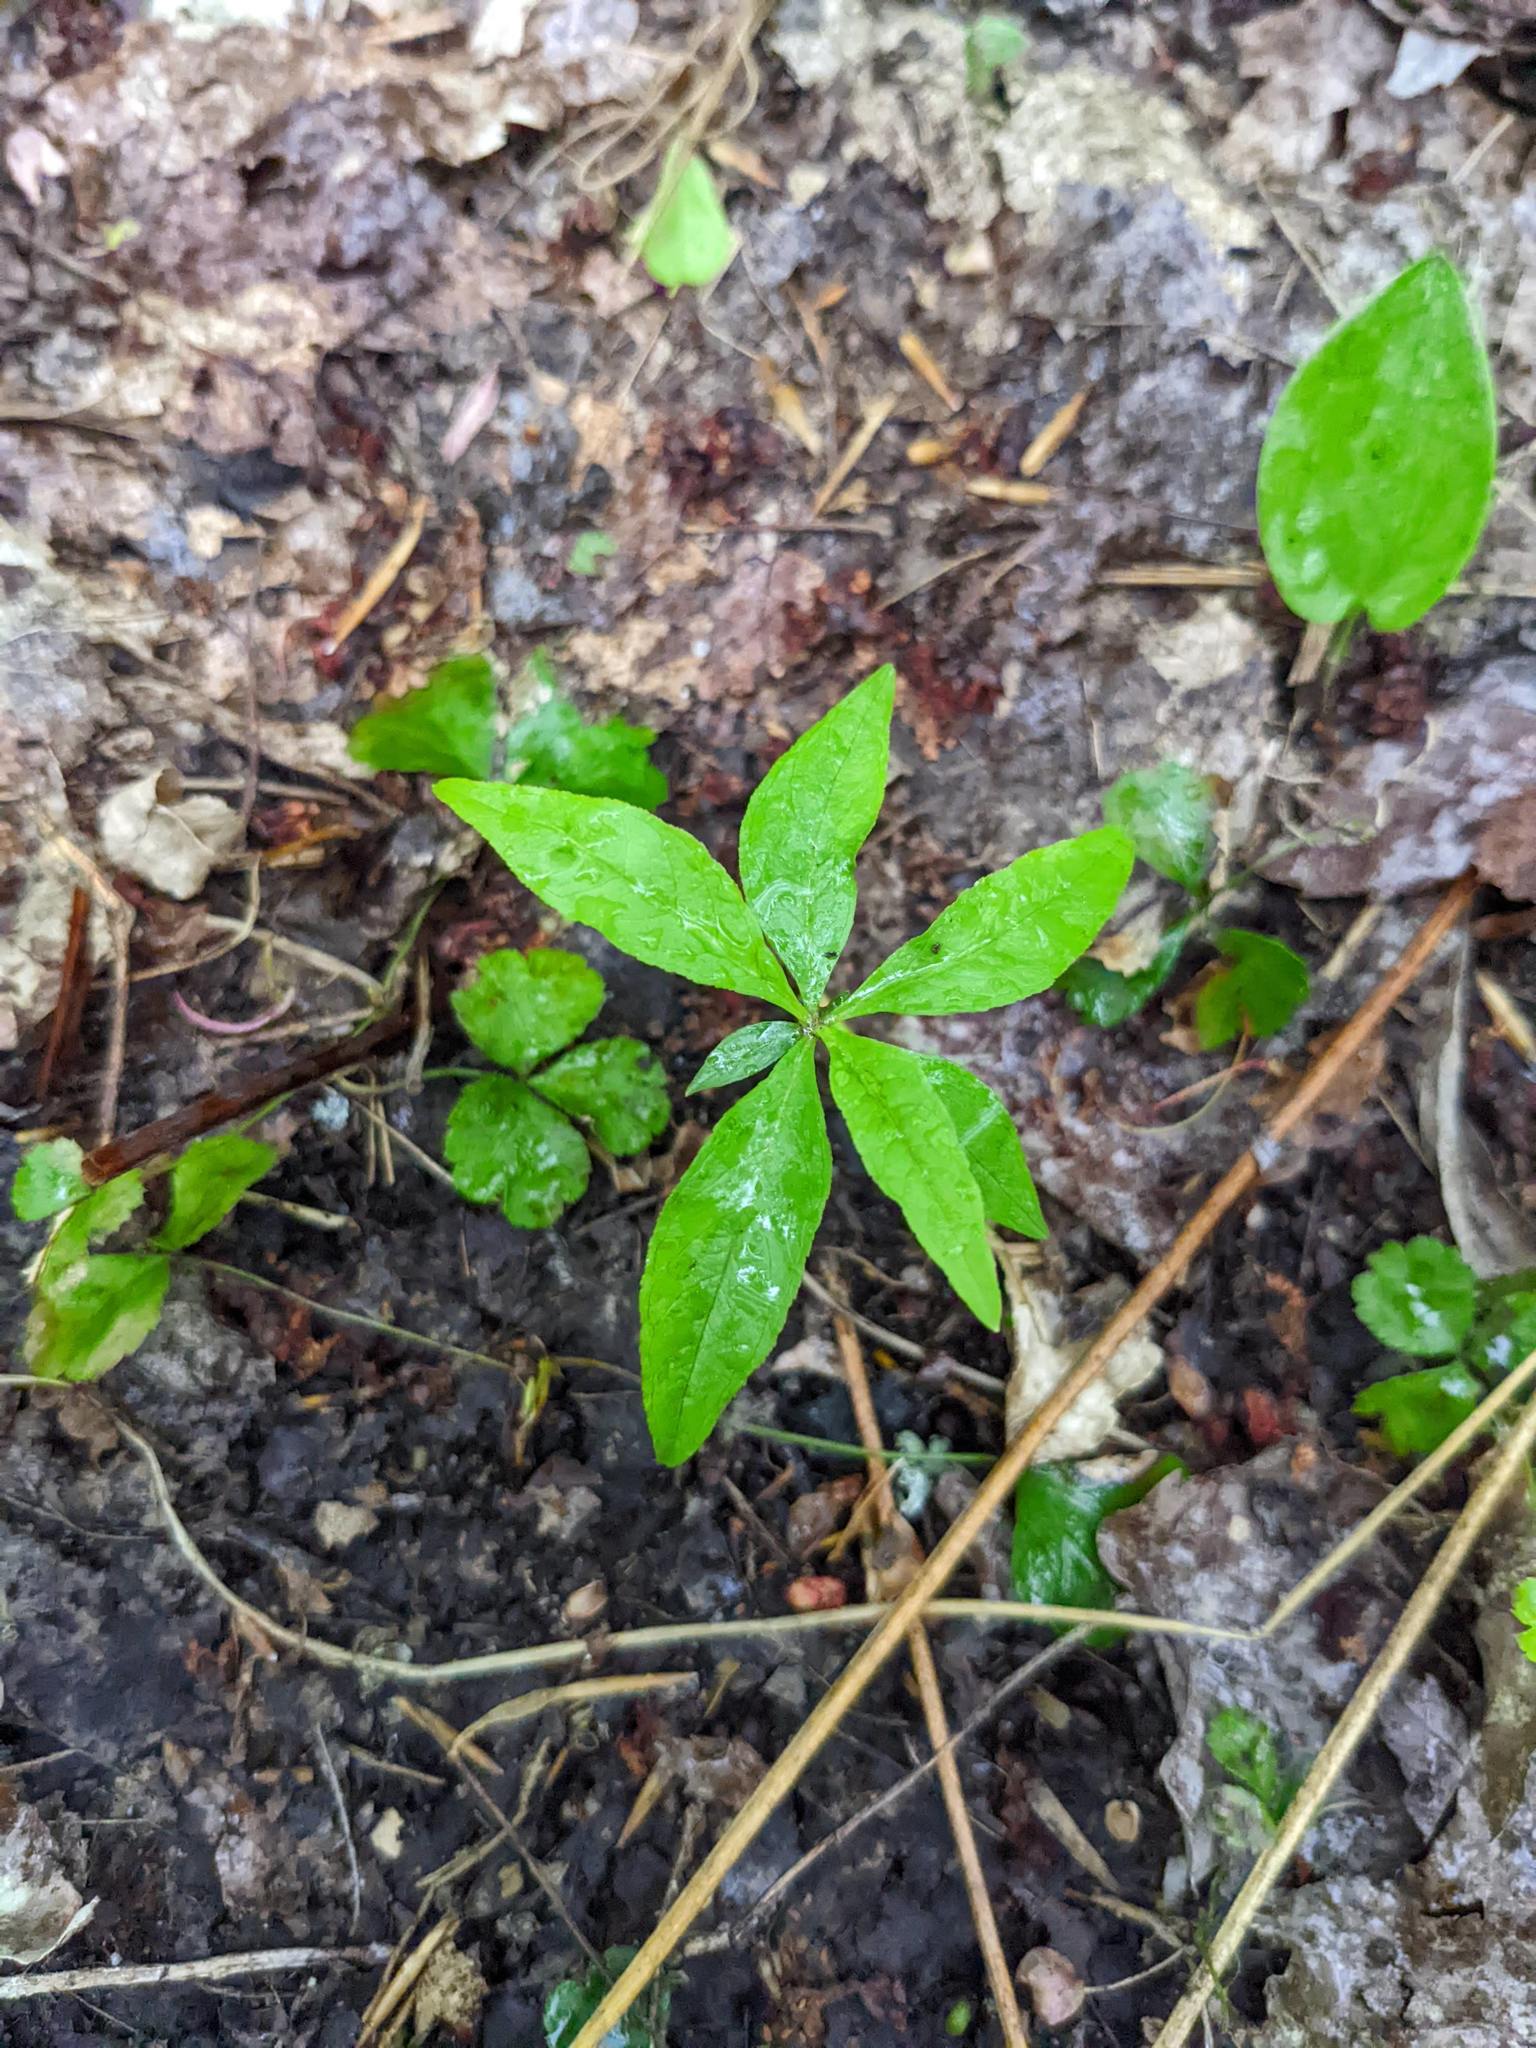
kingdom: Plantae
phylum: Tracheophyta
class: Magnoliopsida
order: Ericales
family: Primulaceae
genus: Lysimachia
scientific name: Lysimachia borealis
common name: American starflower
